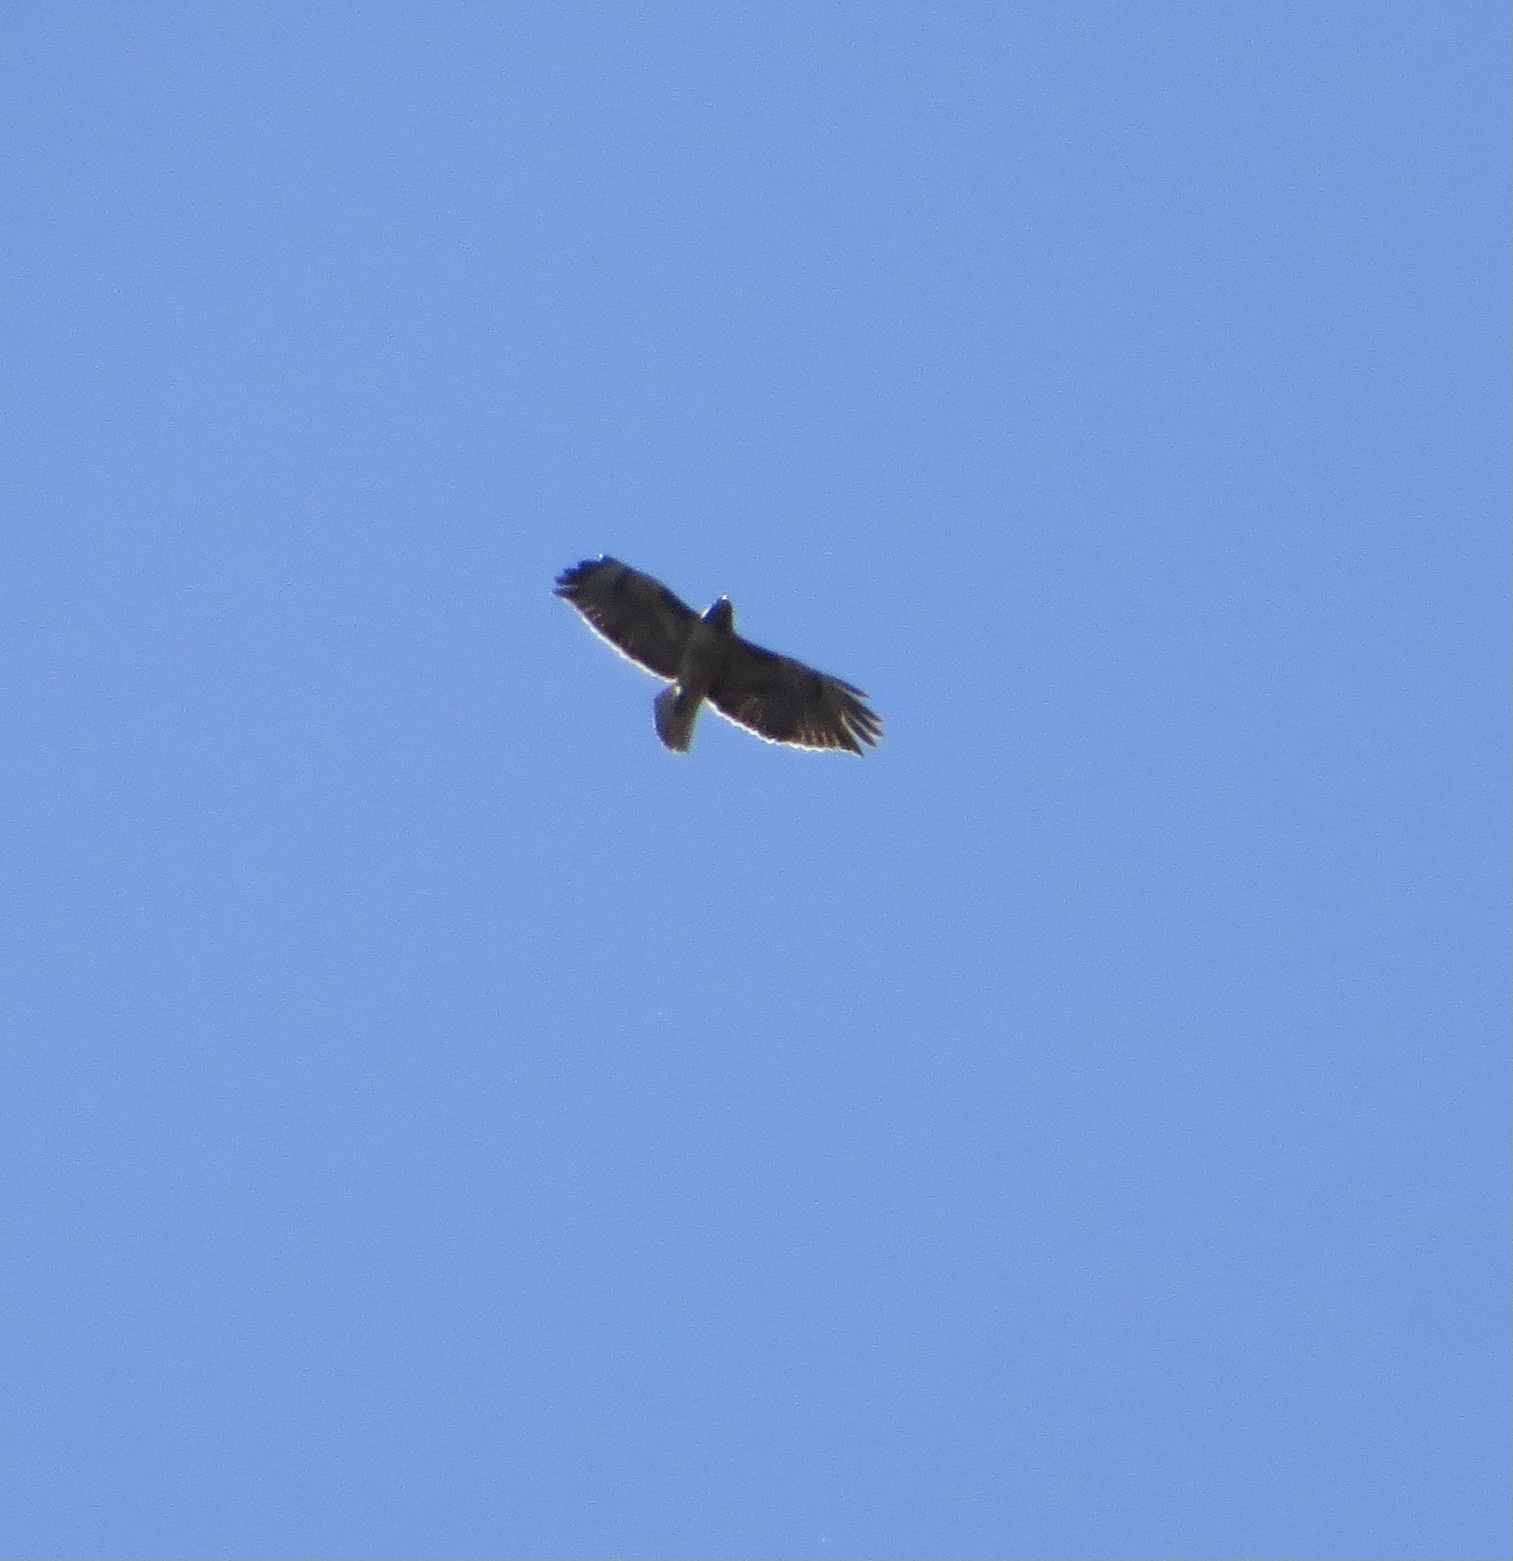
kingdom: Animalia
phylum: Chordata
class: Aves
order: Accipitriformes
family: Accipitridae
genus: Buteo
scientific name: Buteo jamaicensis
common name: Red-tailed hawk
